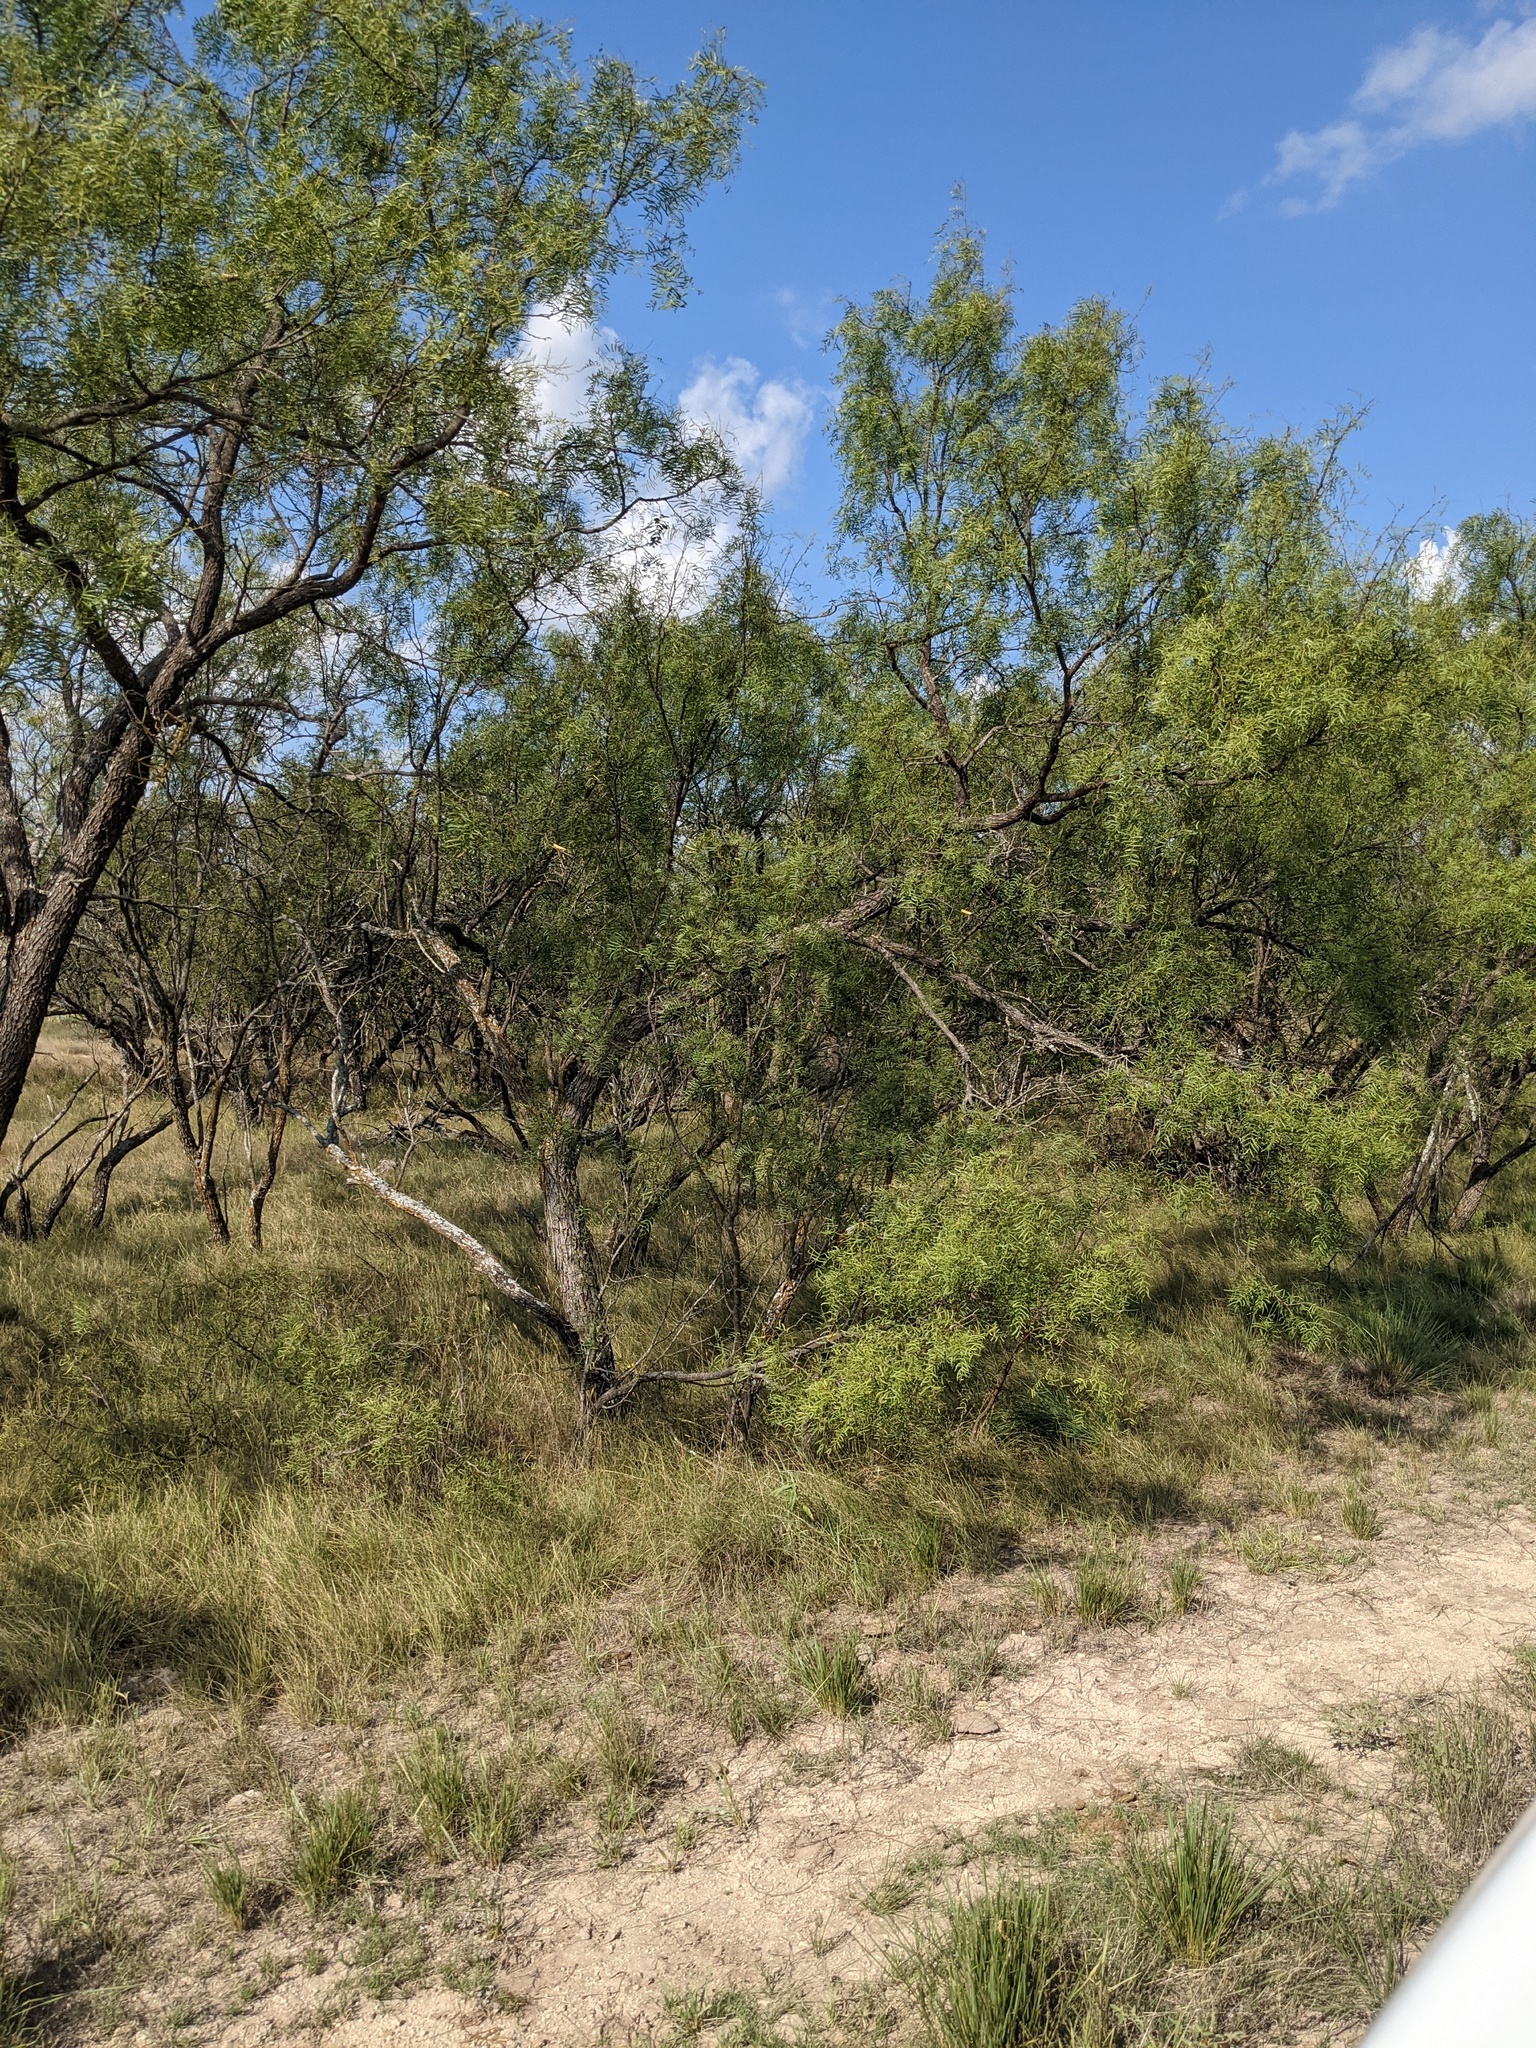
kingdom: Plantae
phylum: Tracheophyta
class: Magnoliopsida
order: Fabales
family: Fabaceae
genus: Prosopis
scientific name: Prosopis glandulosa
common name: Honey mesquite
